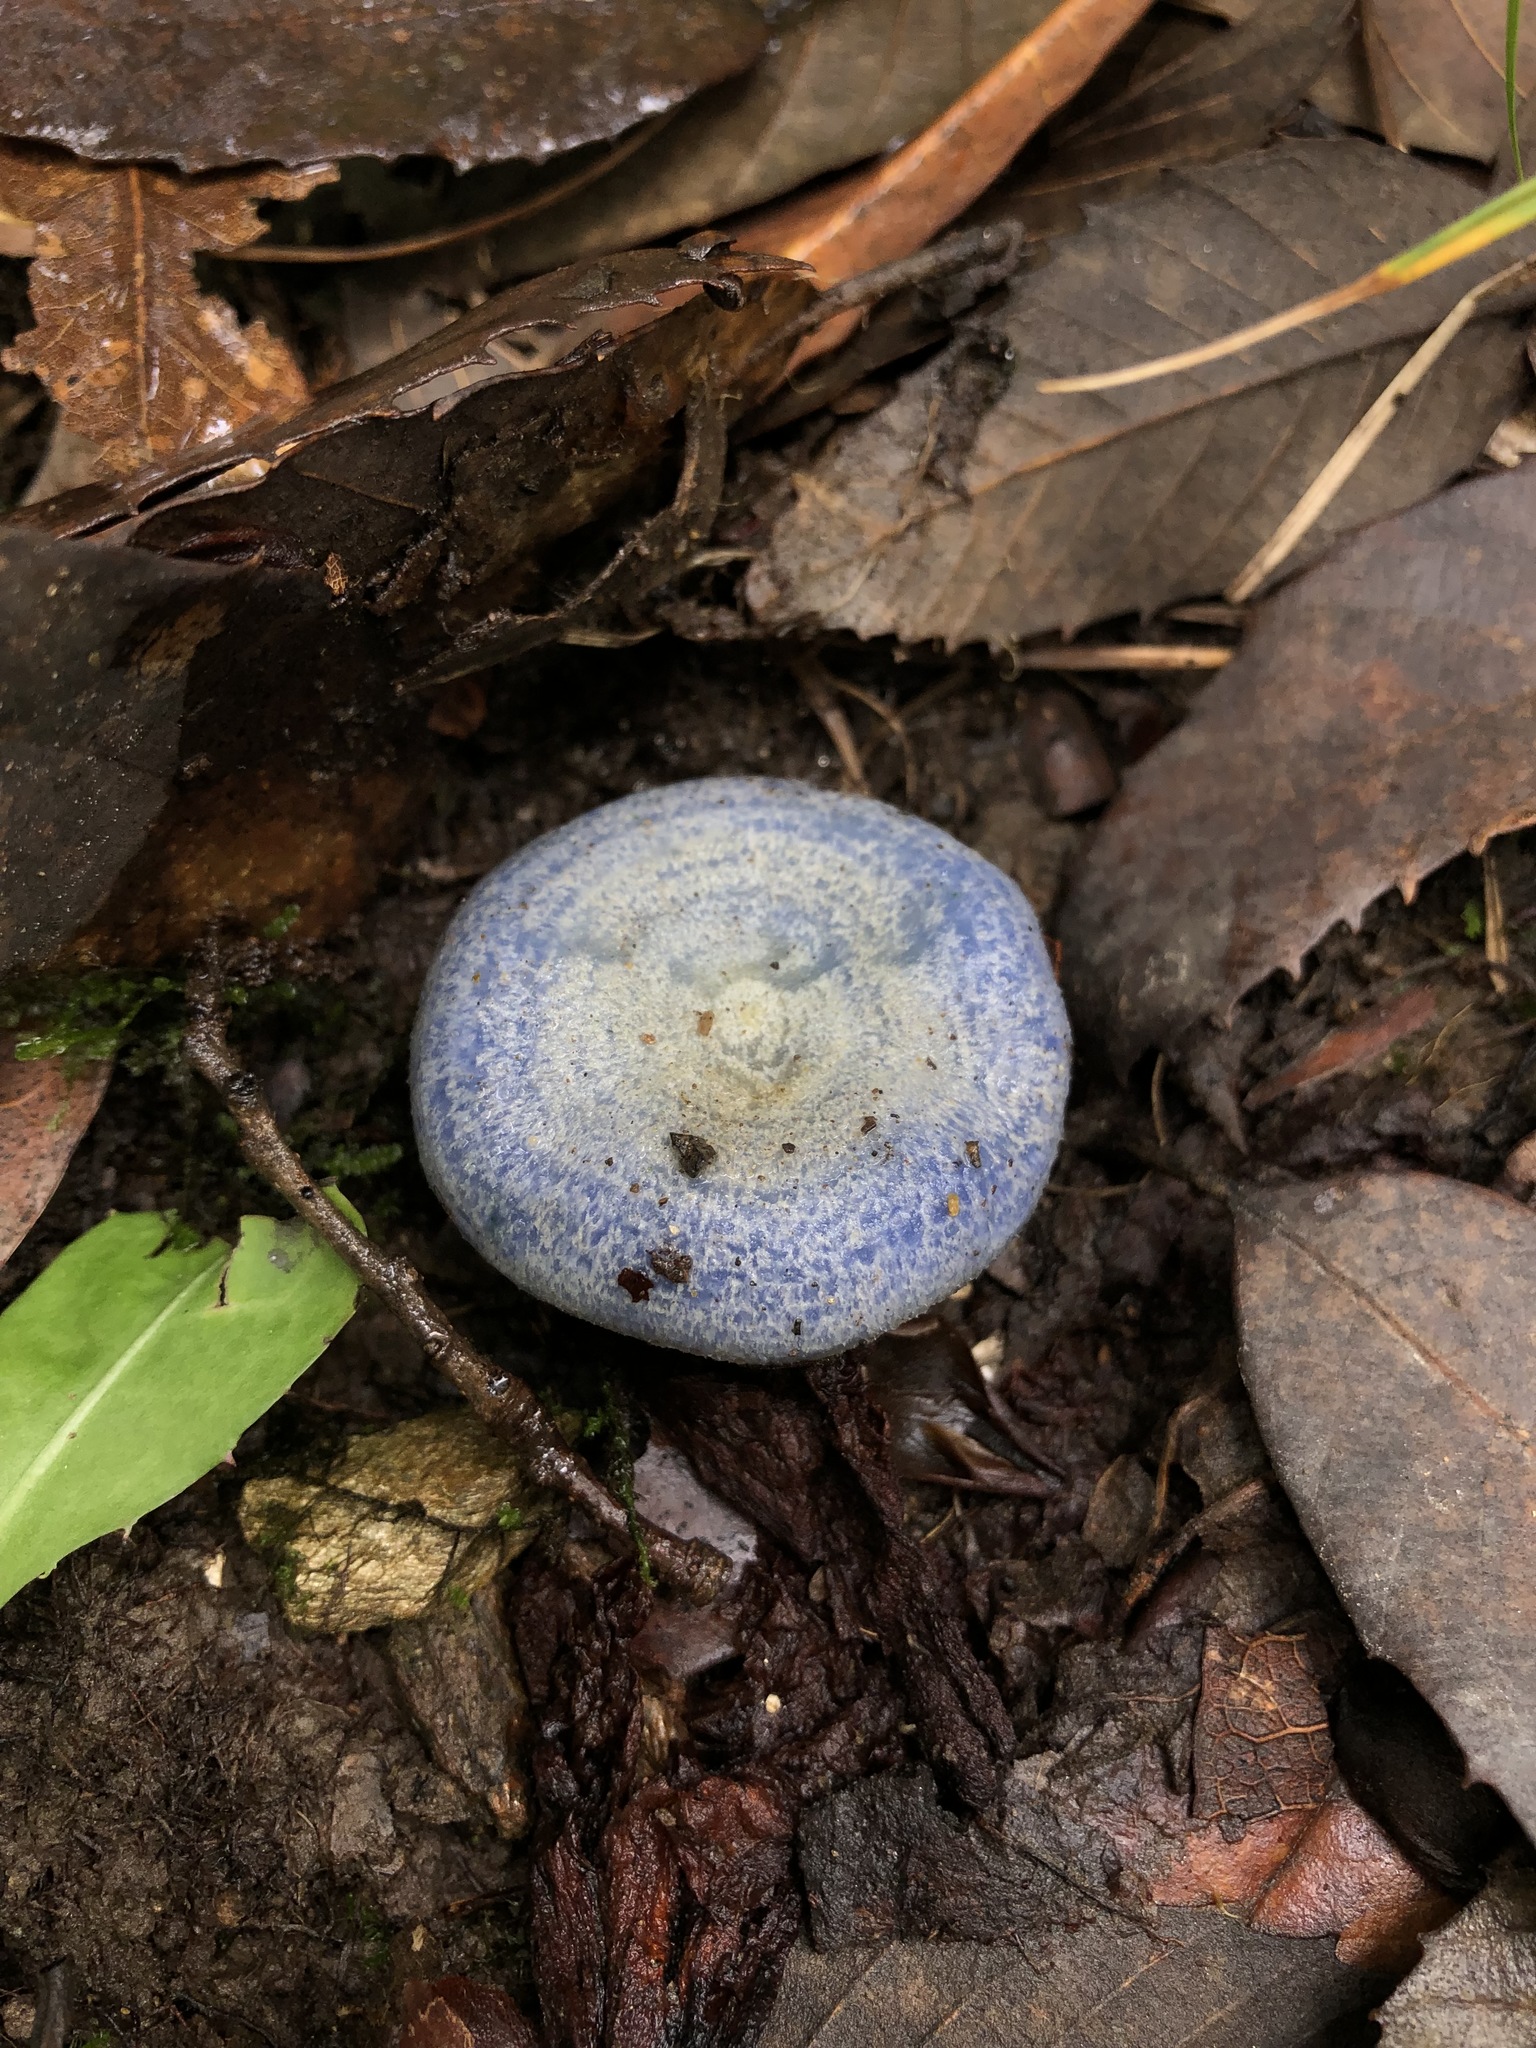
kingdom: Fungi
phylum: Basidiomycota
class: Agaricomycetes
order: Russulales
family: Russulaceae
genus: Lactarius
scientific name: Lactarius indigo
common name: Indigo milk cap
